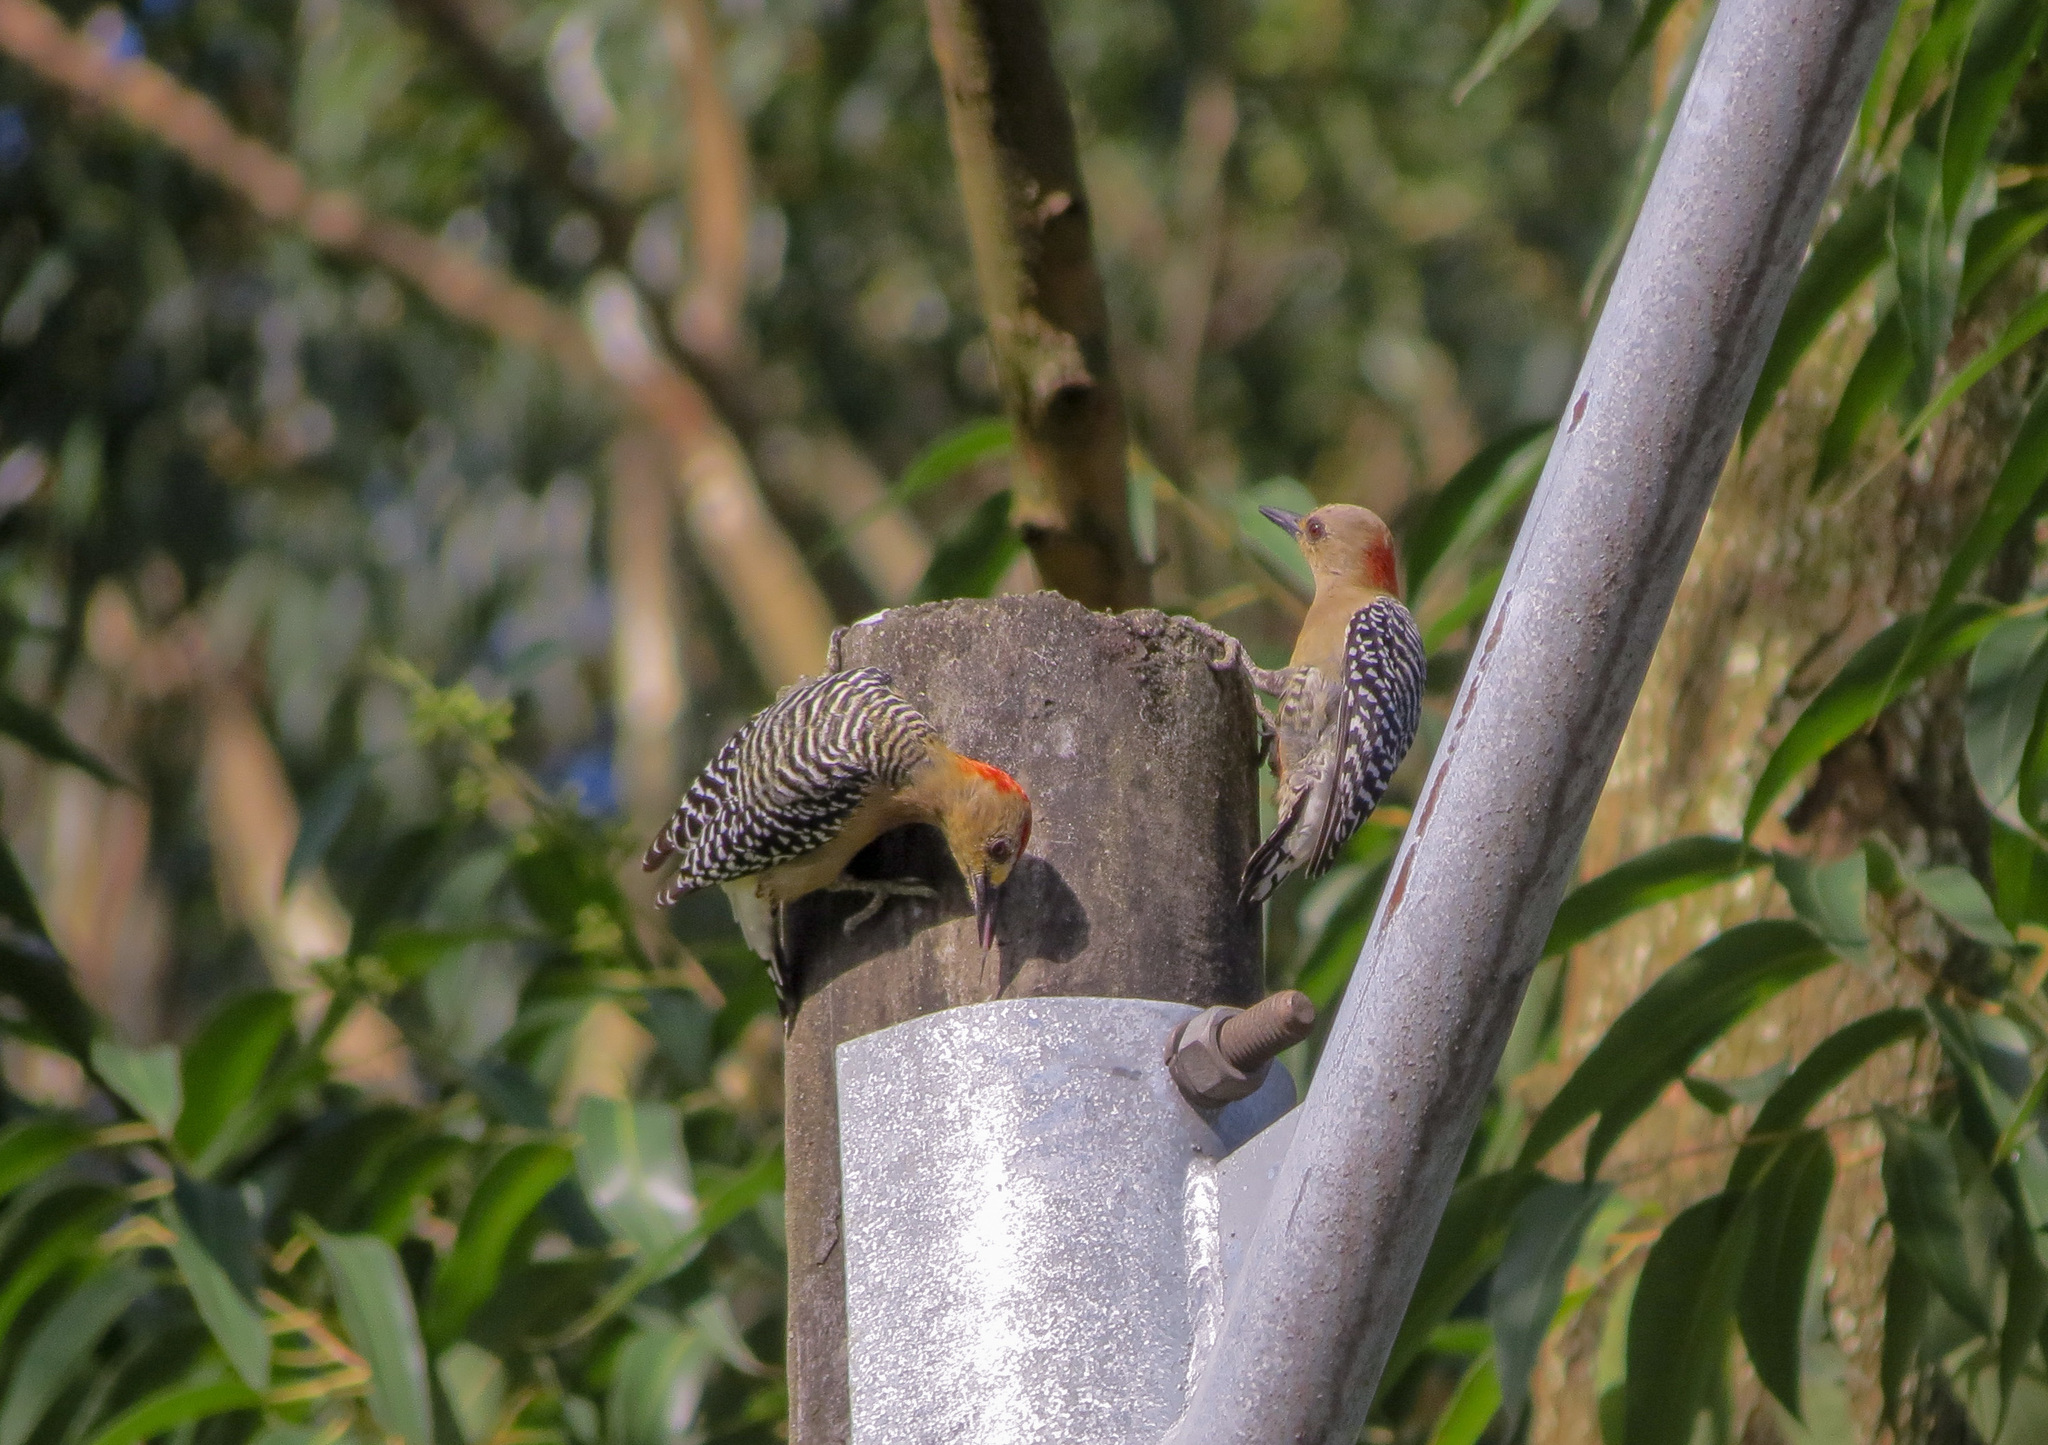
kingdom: Animalia
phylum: Chordata
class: Aves
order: Piciformes
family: Picidae
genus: Melanerpes
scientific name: Melanerpes rubricapillus
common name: Red-crowned woodpecker
